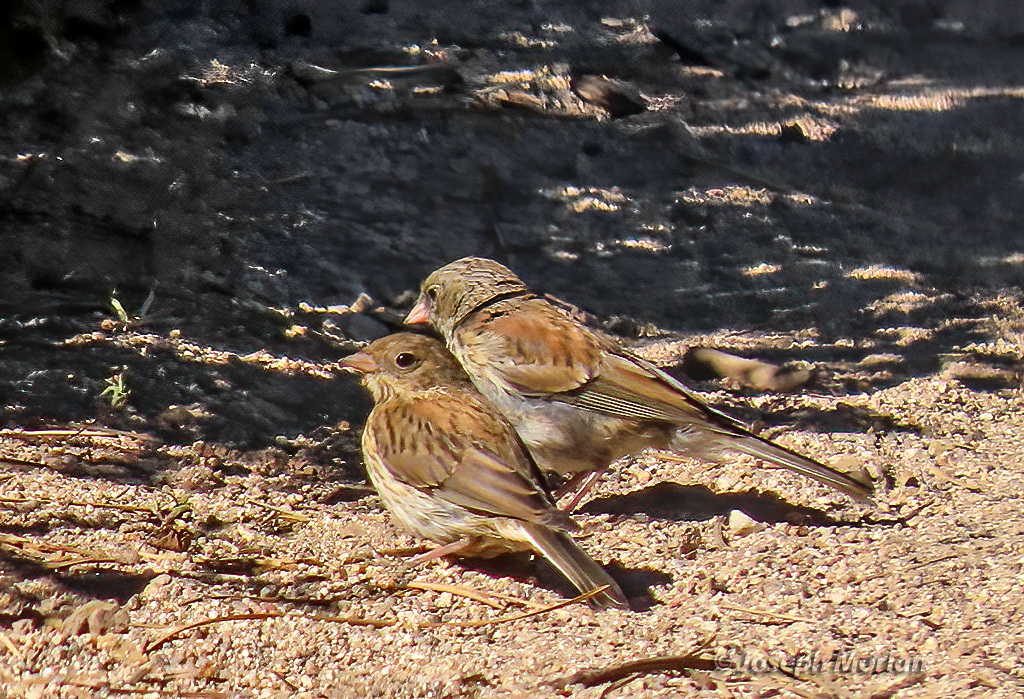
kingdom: Animalia
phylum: Chordata
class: Aves
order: Passeriformes
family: Passerellidae
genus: Junco
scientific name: Junco hyemalis
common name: Dark-eyed junco
